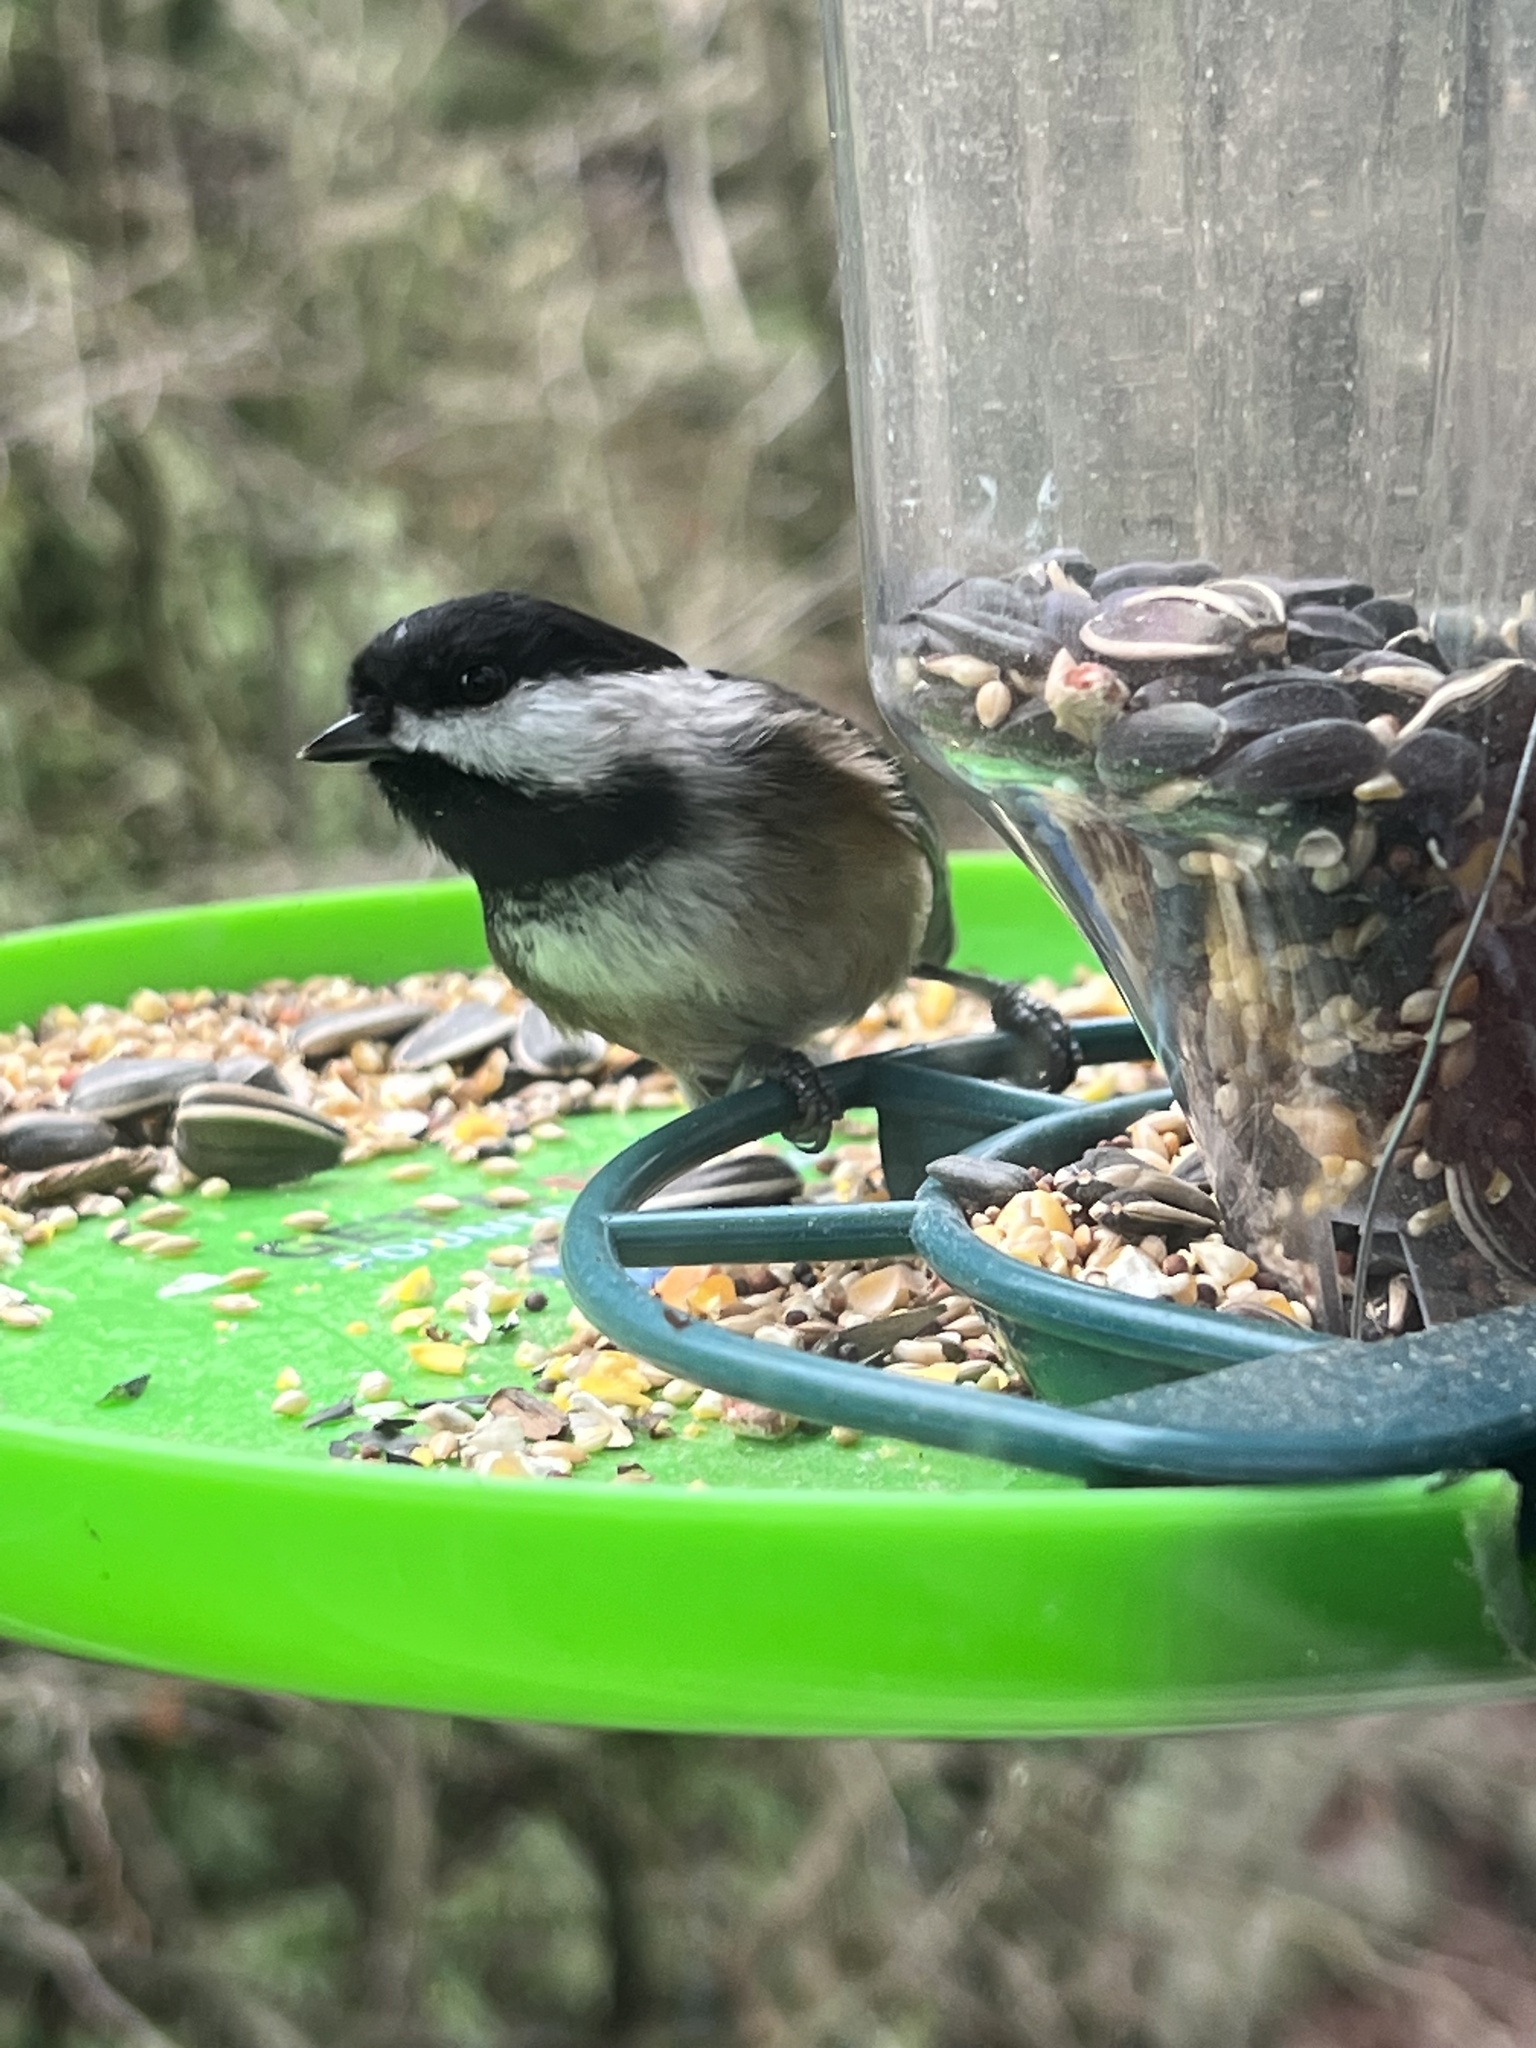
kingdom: Animalia
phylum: Chordata
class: Aves
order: Passeriformes
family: Paridae
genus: Poecile
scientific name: Poecile atricapillus
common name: Black-capped chickadee
